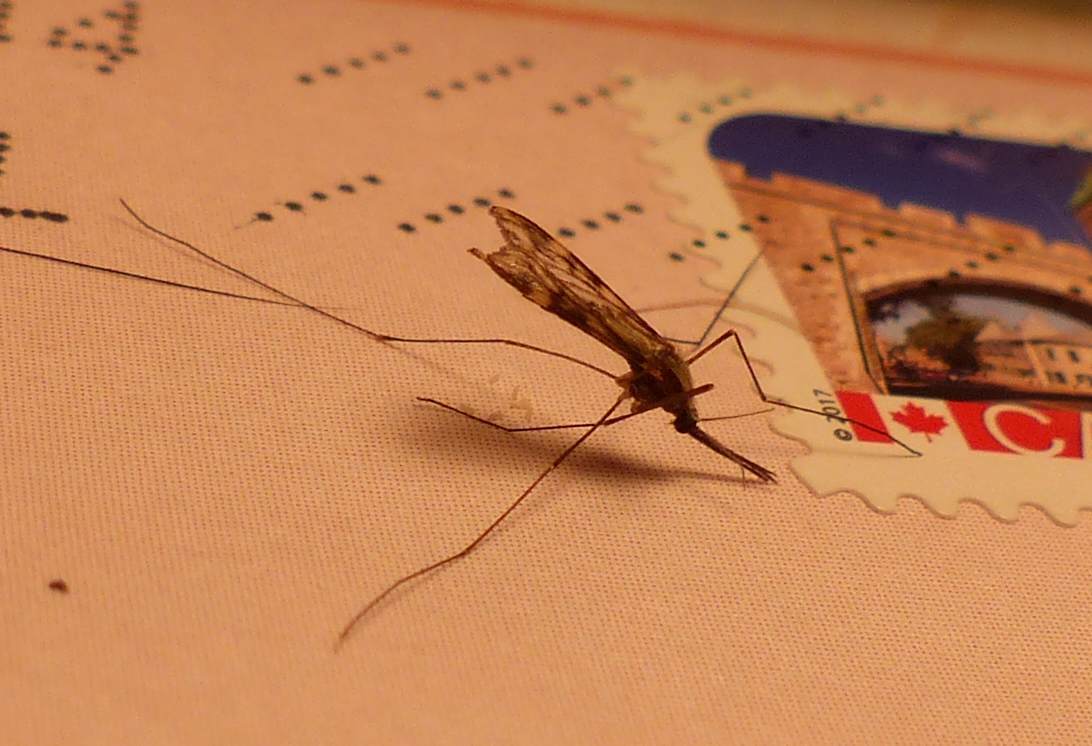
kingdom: Animalia
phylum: Arthropoda
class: Insecta
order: Diptera
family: Culicidae
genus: Anopheles
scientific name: Anopheles punctipennis
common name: Woodland malaria mosquito
